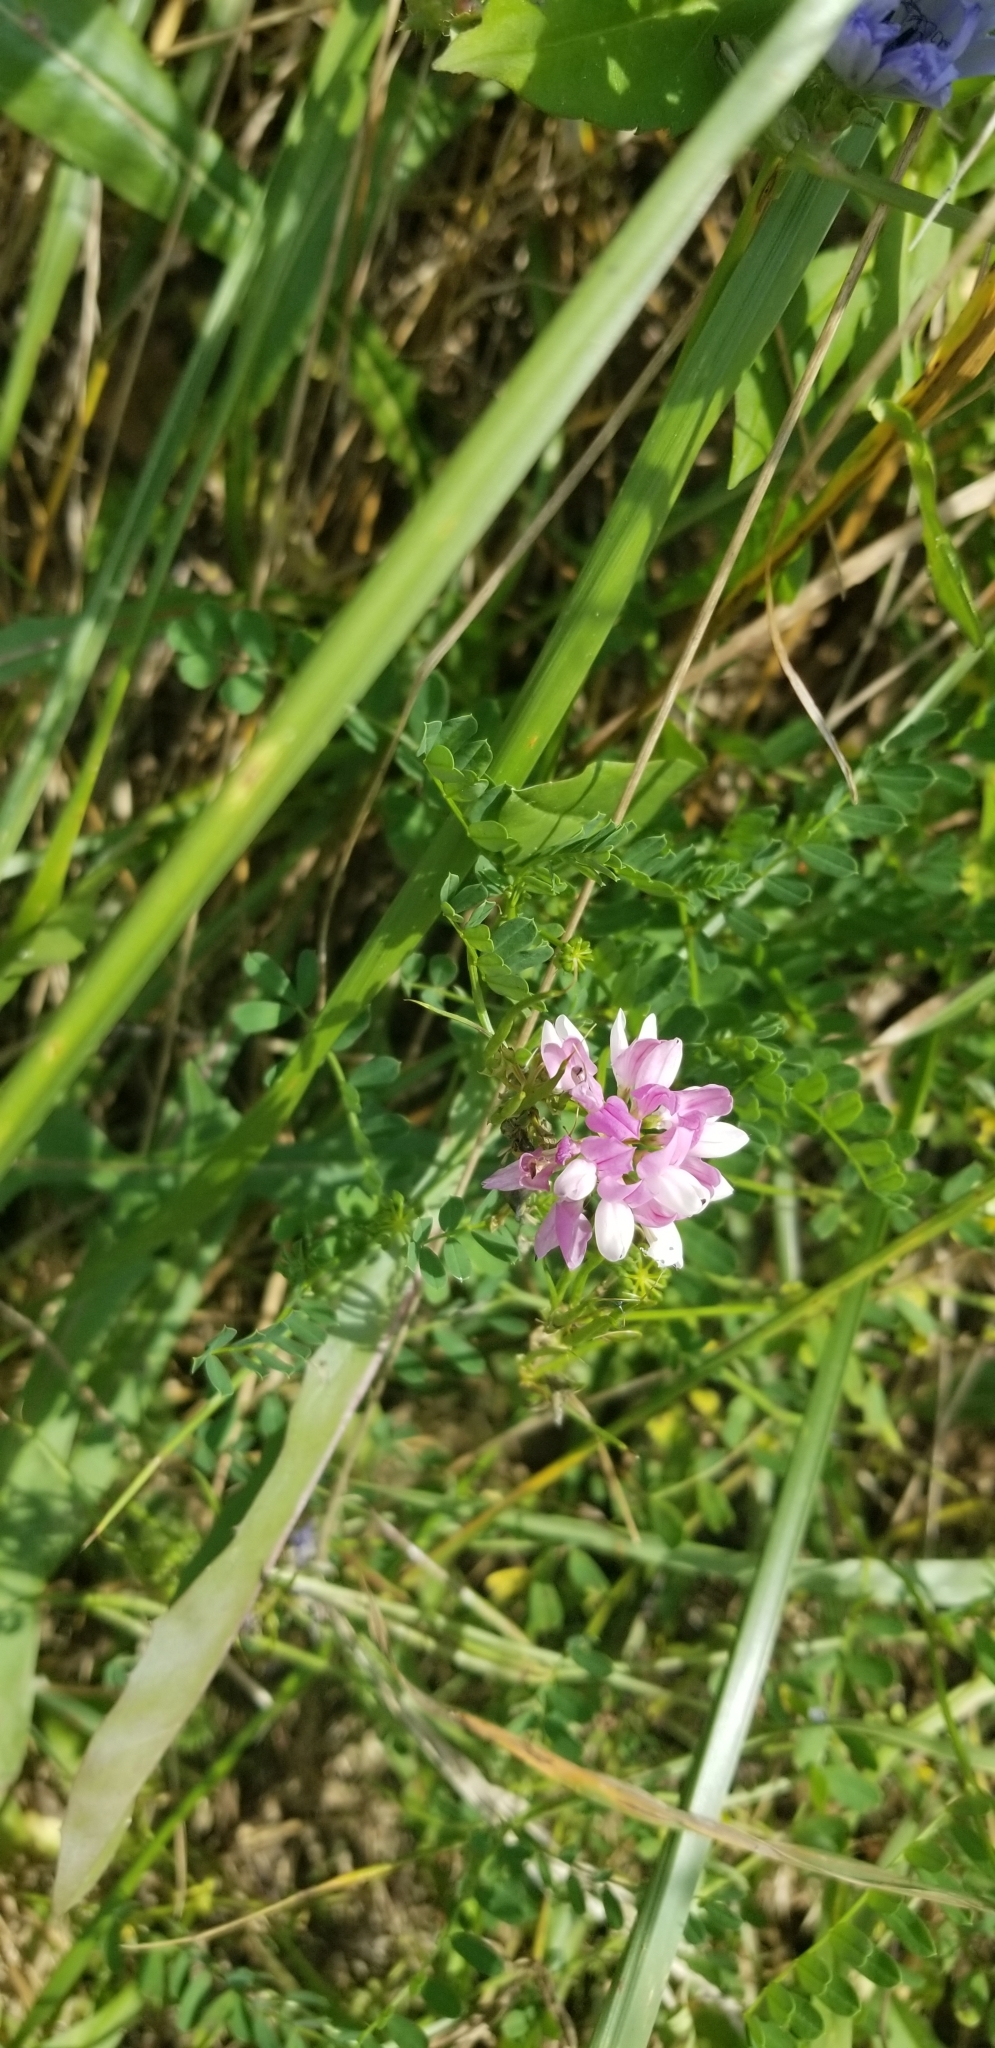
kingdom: Plantae
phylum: Tracheophyta
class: Magnoliopsida
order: Fabales
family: Fabaceae
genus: Coronilla
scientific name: Coronilla varia
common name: Crownvetch
